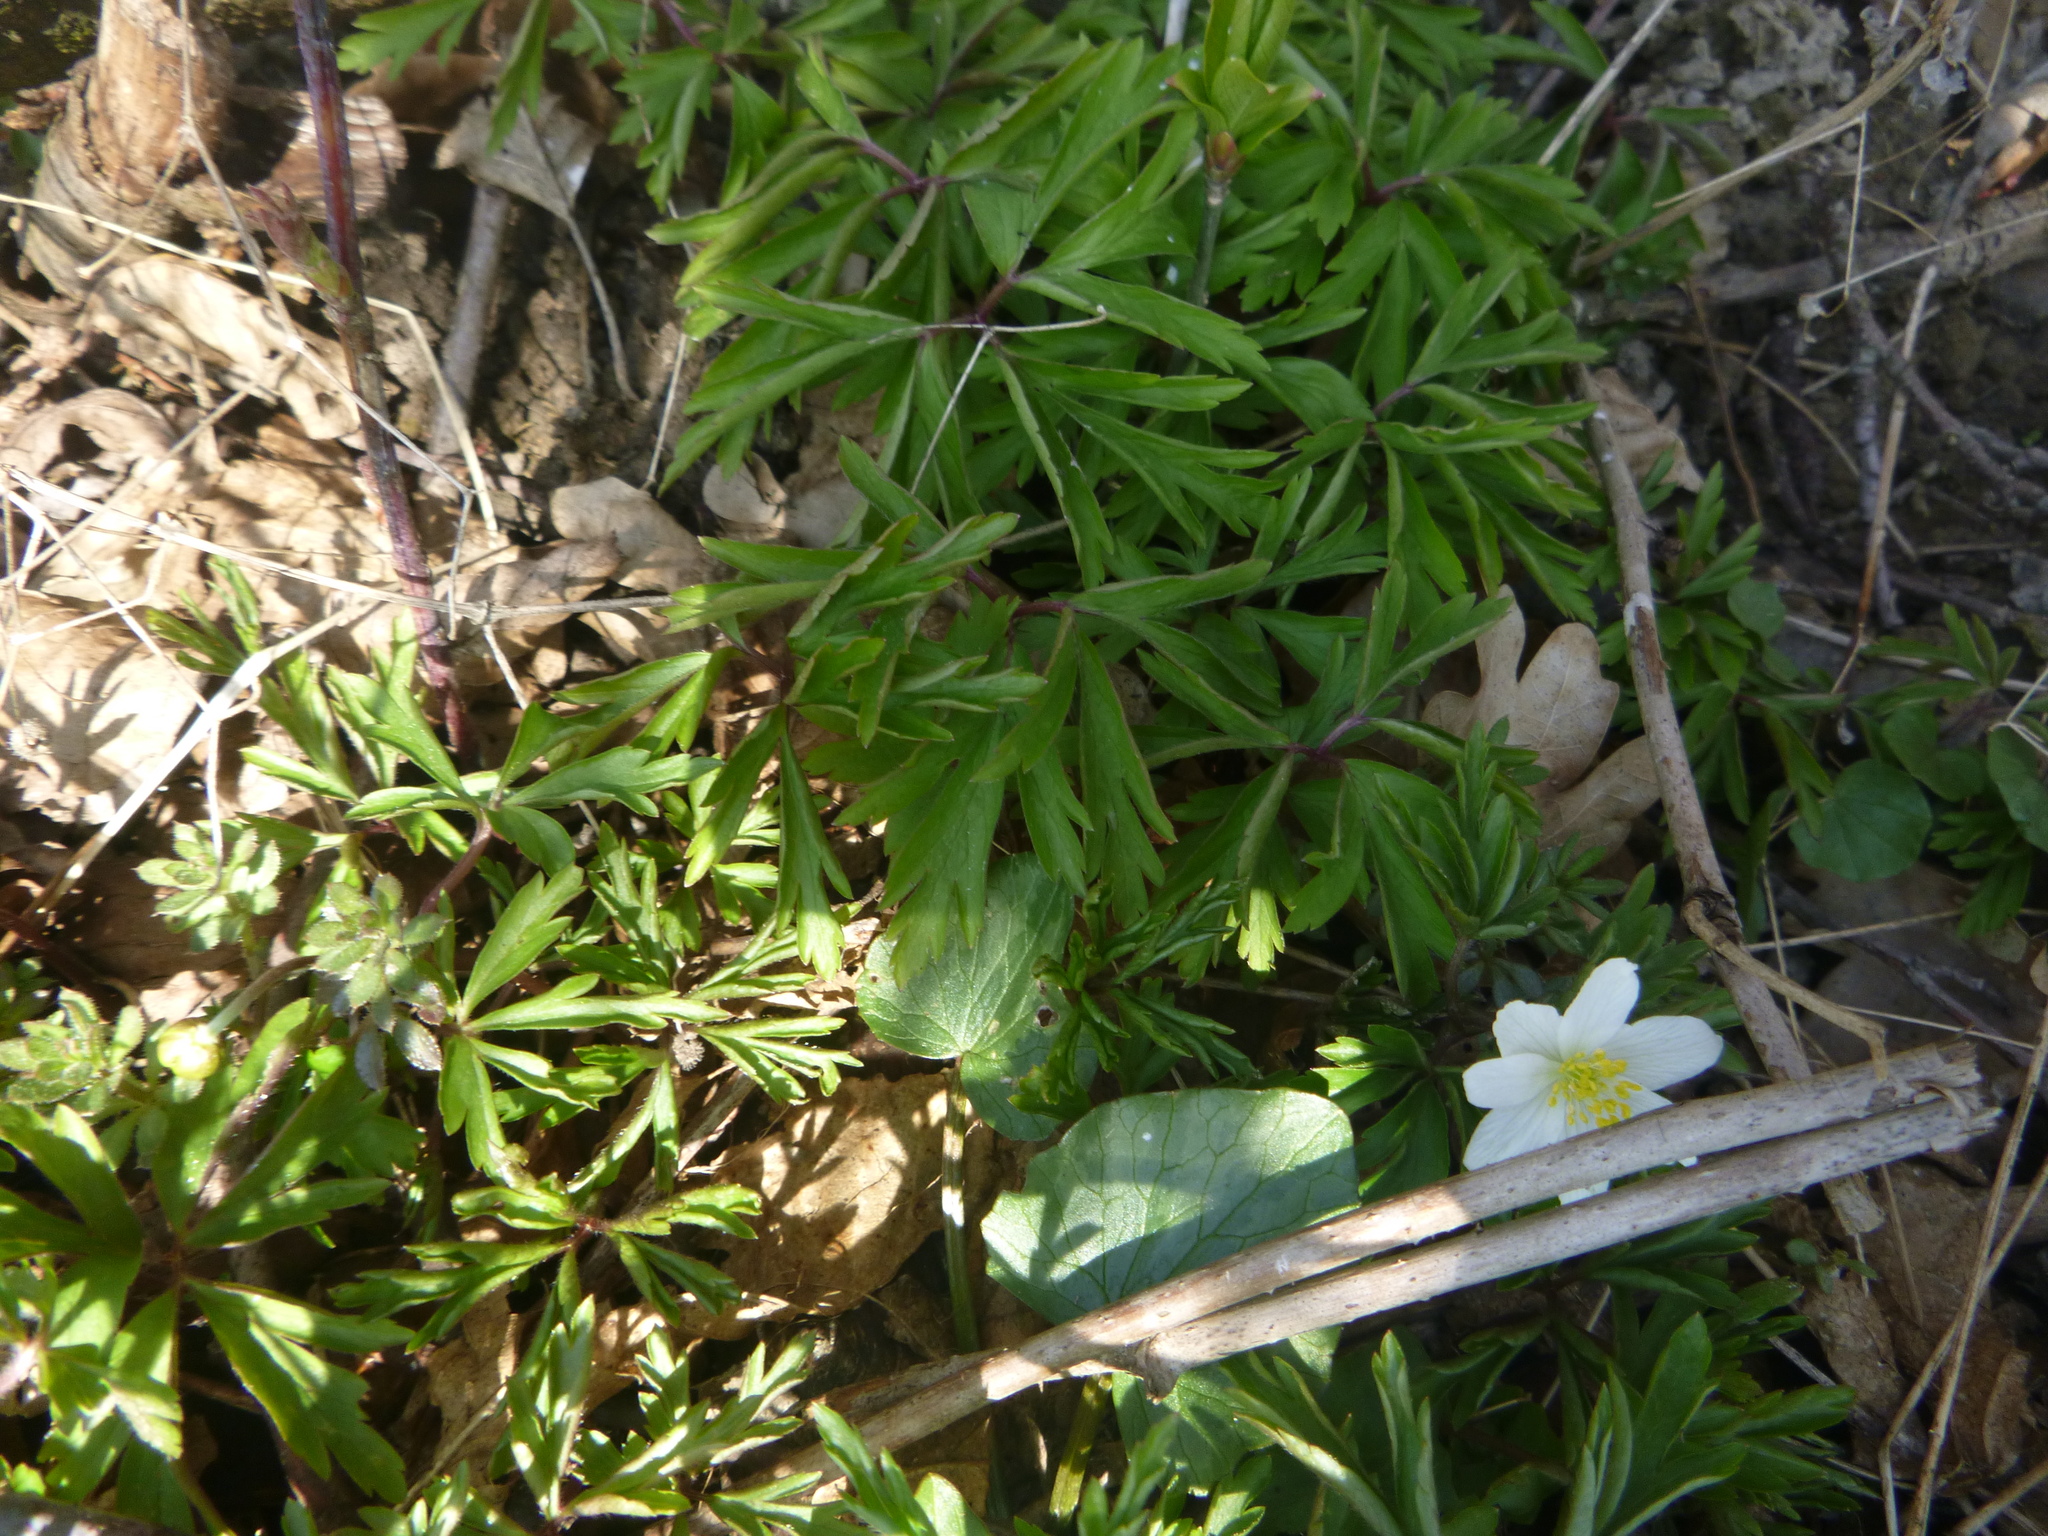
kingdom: Plantae
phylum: Tracheophyta
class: Magnoliopsida
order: Ranunculales
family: Ranunculaceae
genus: Anemone
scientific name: Anemone nemorosa
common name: Wood anemone
